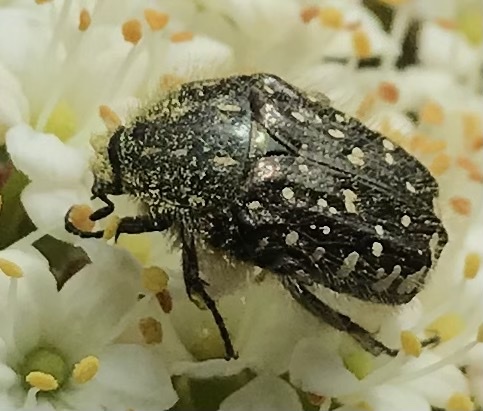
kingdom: Animalia
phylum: Arthropoda
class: Insecta
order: Coleoptera
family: Scarabaeidae
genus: Oxythyrea
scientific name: Oxythyrea funesta
